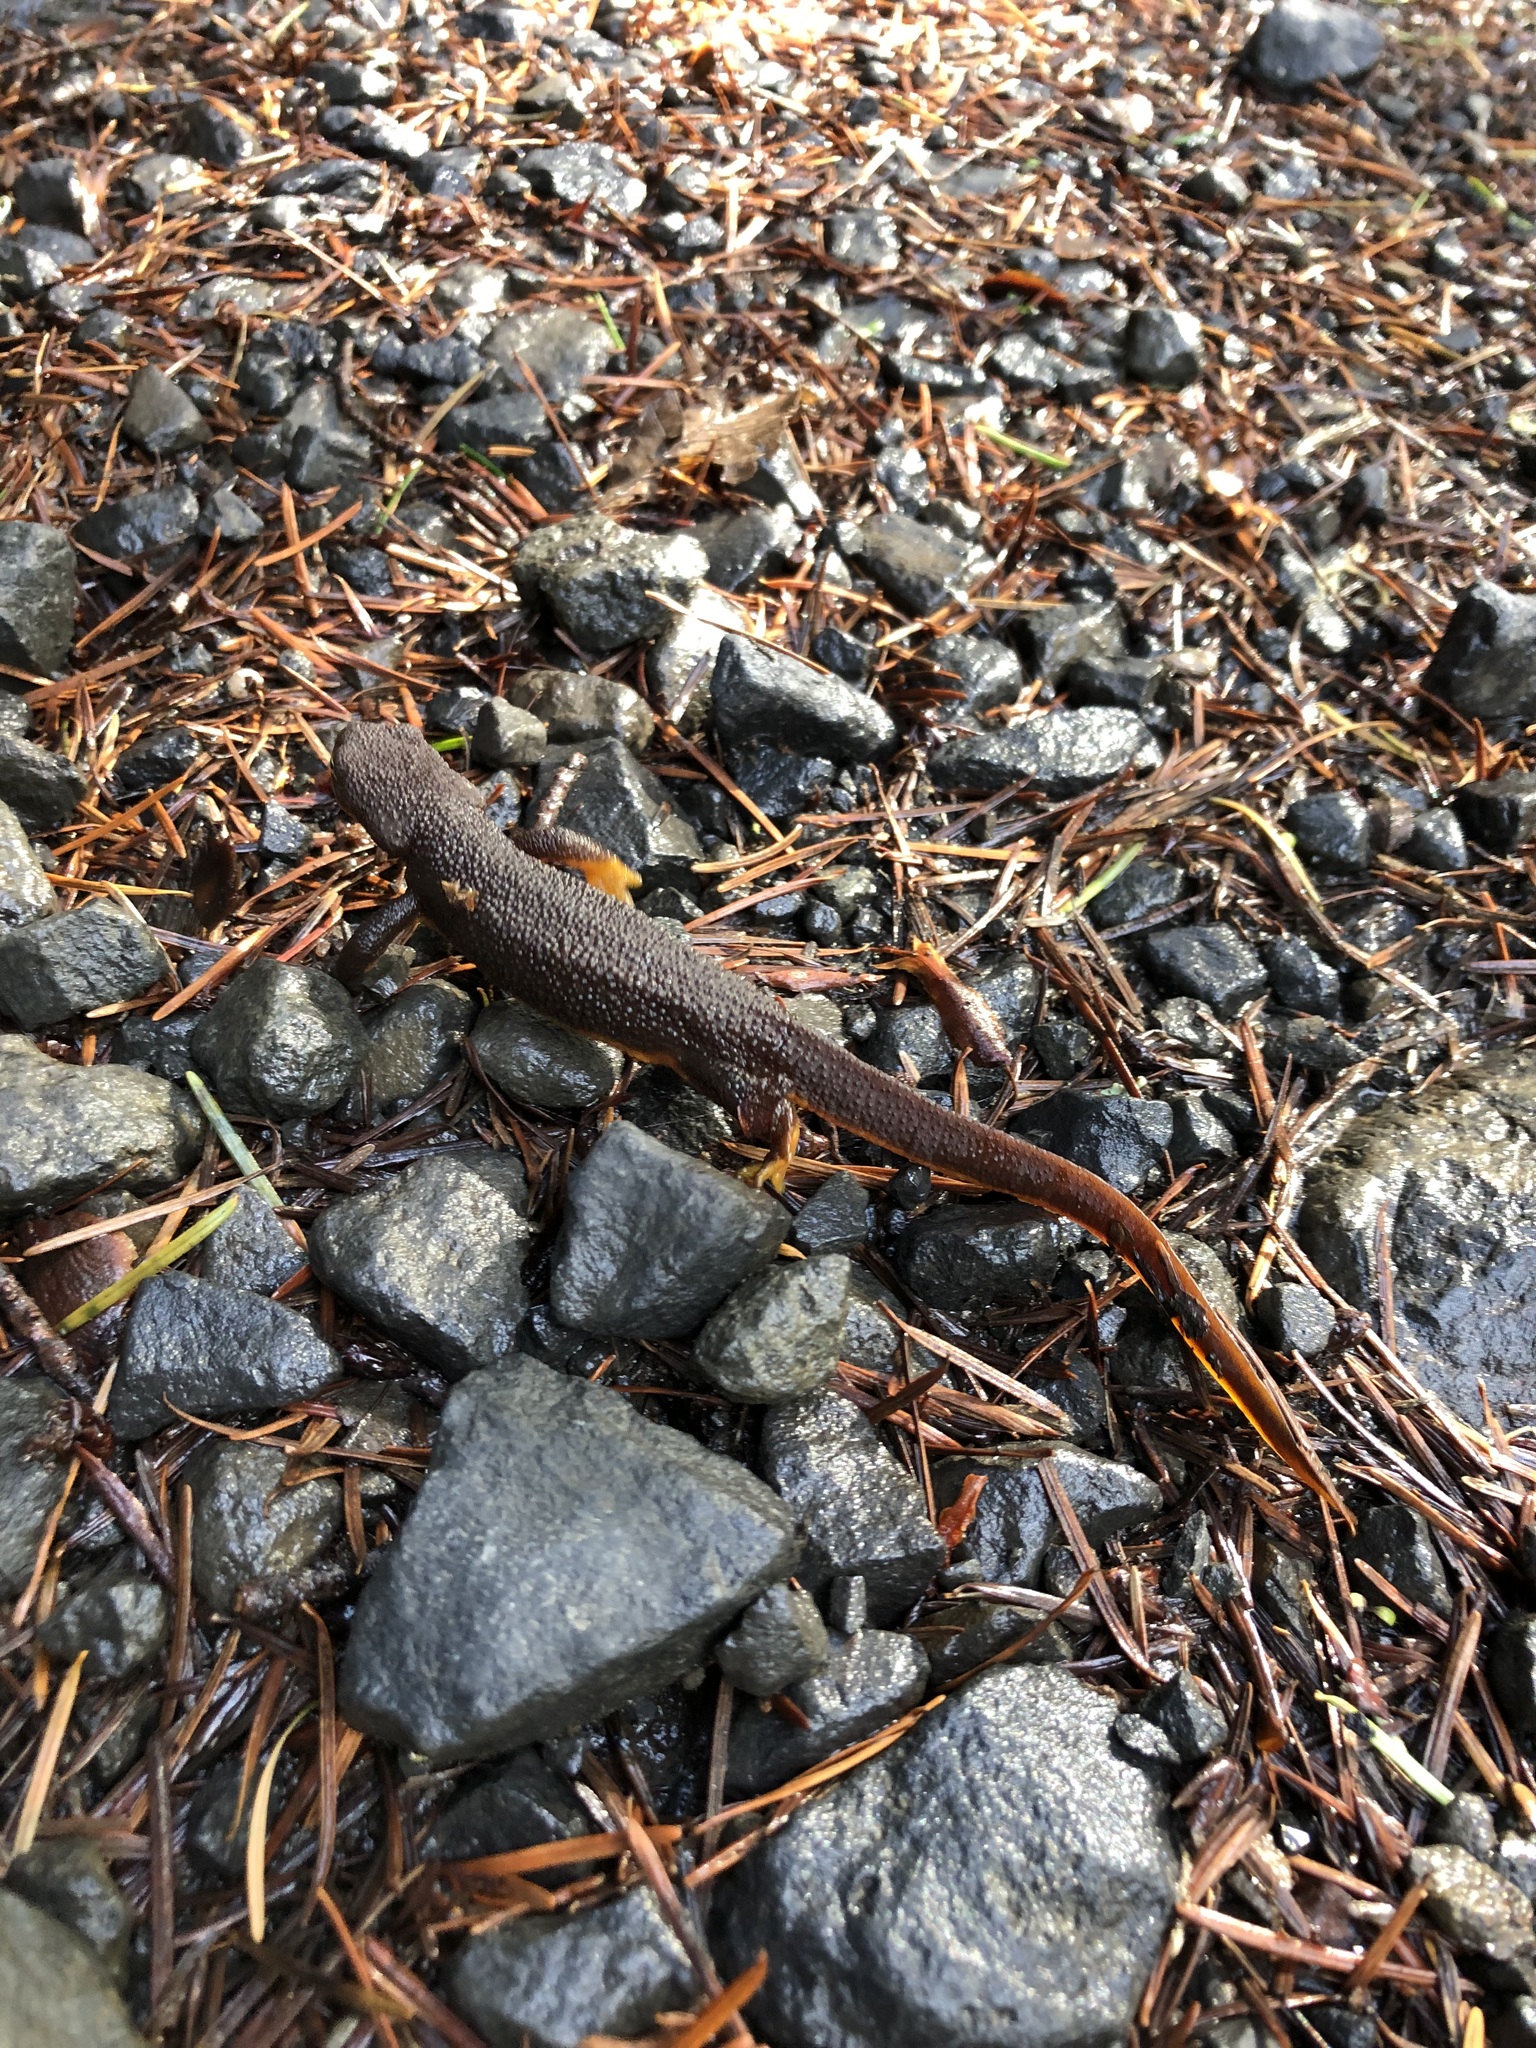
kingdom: Animalia
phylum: Chordata
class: Amphibia
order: Caudata
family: Salamandridae
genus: Taricha
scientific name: Taricha granulosa
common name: Roughskin newt
